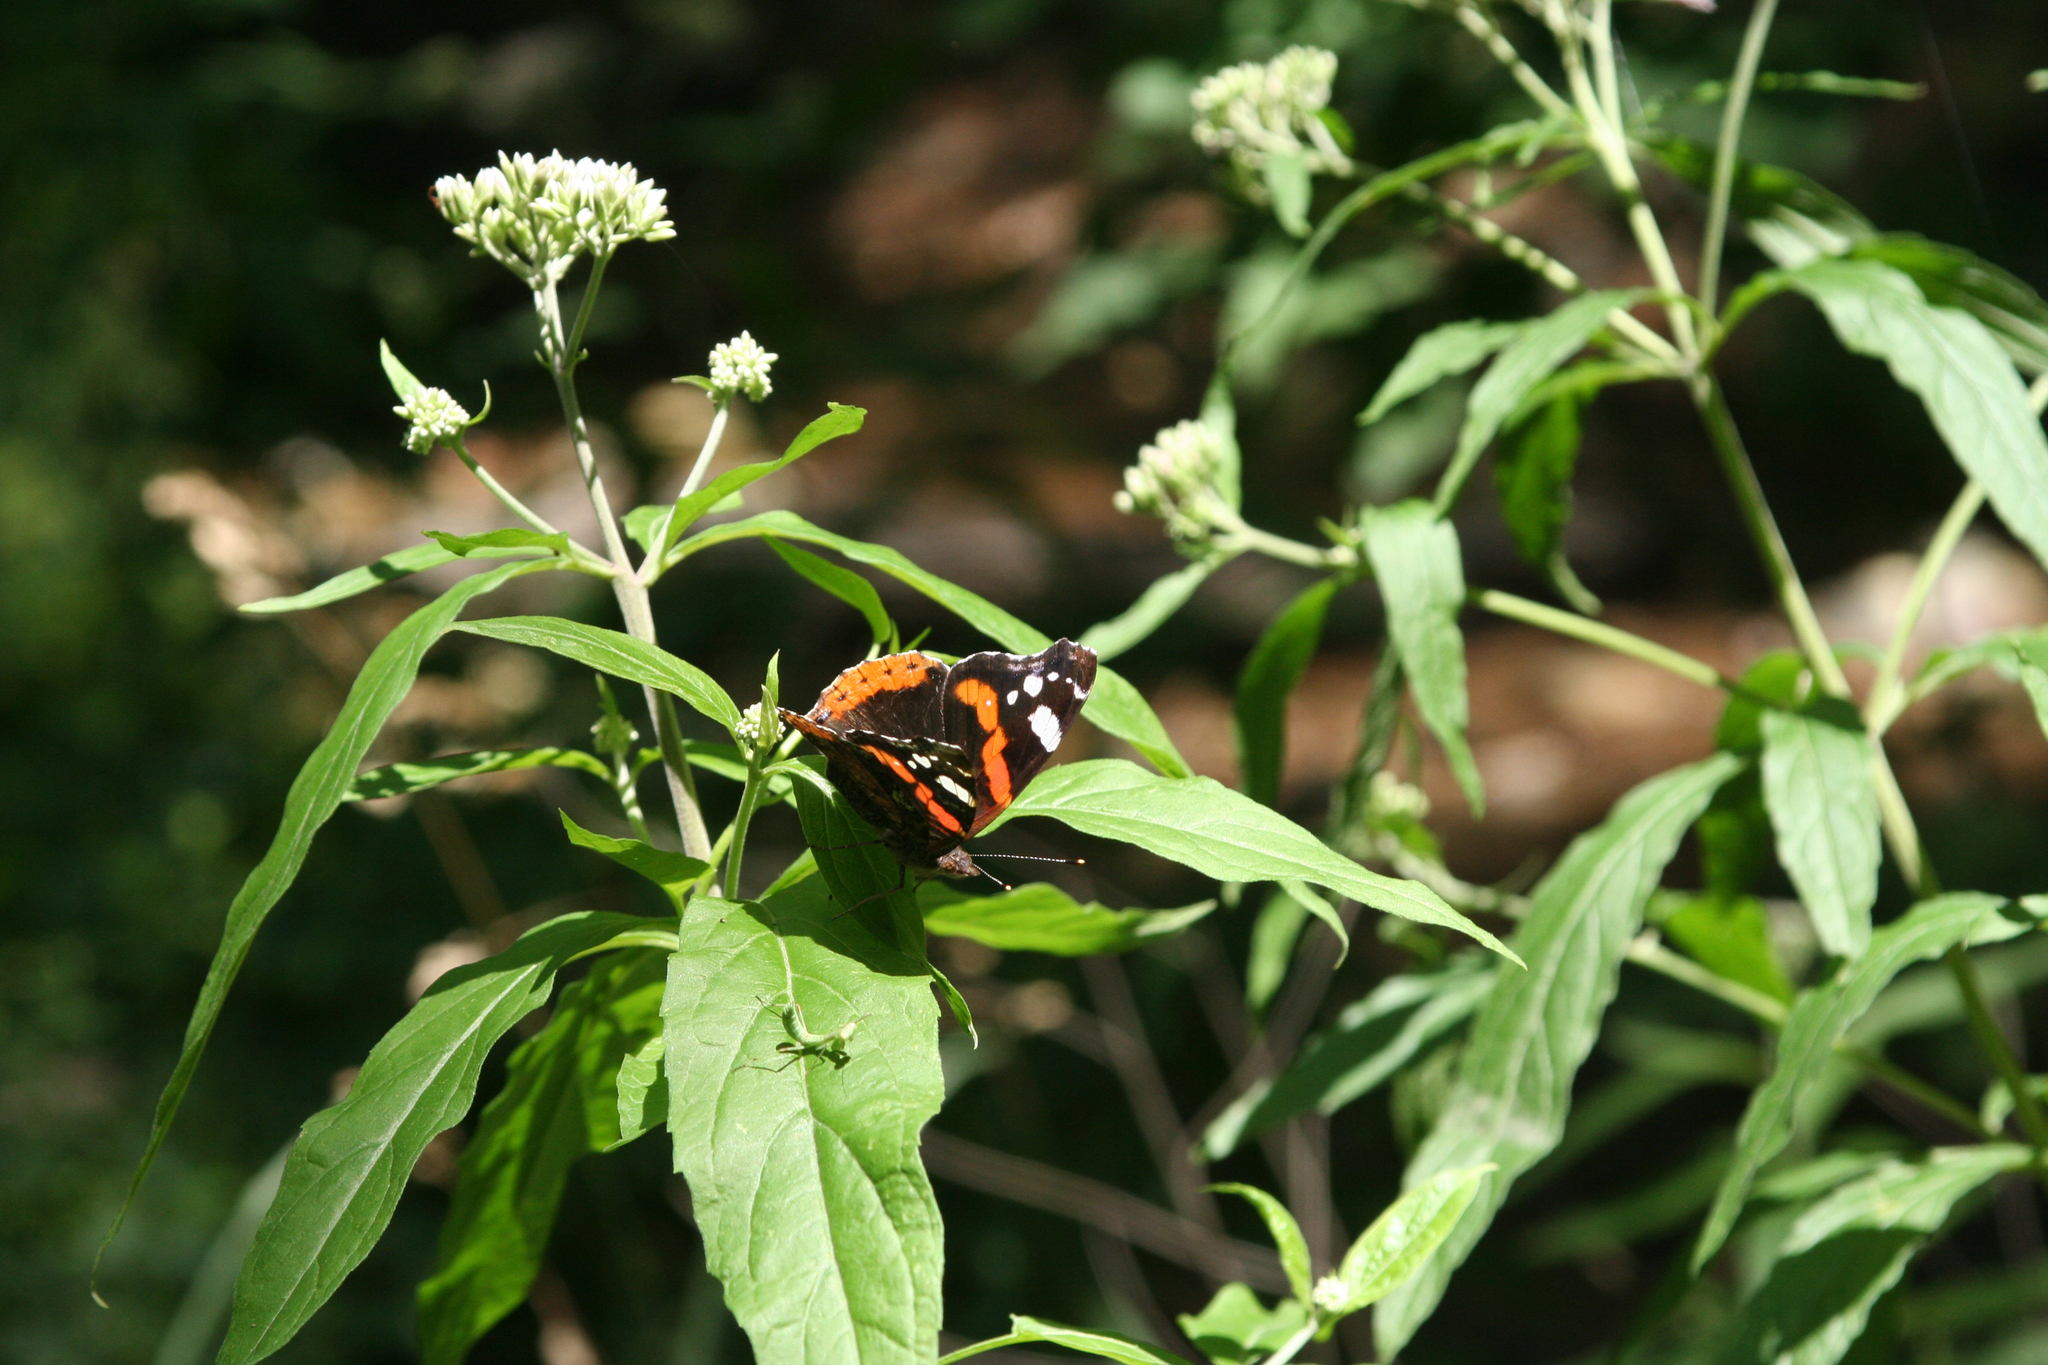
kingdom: Plantae
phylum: Tracheophyta
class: Magnoliopsida
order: Asterales
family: Asteraceae
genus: Eupatorium
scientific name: Eupatorium cannabinum
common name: Hemp-agrimony
